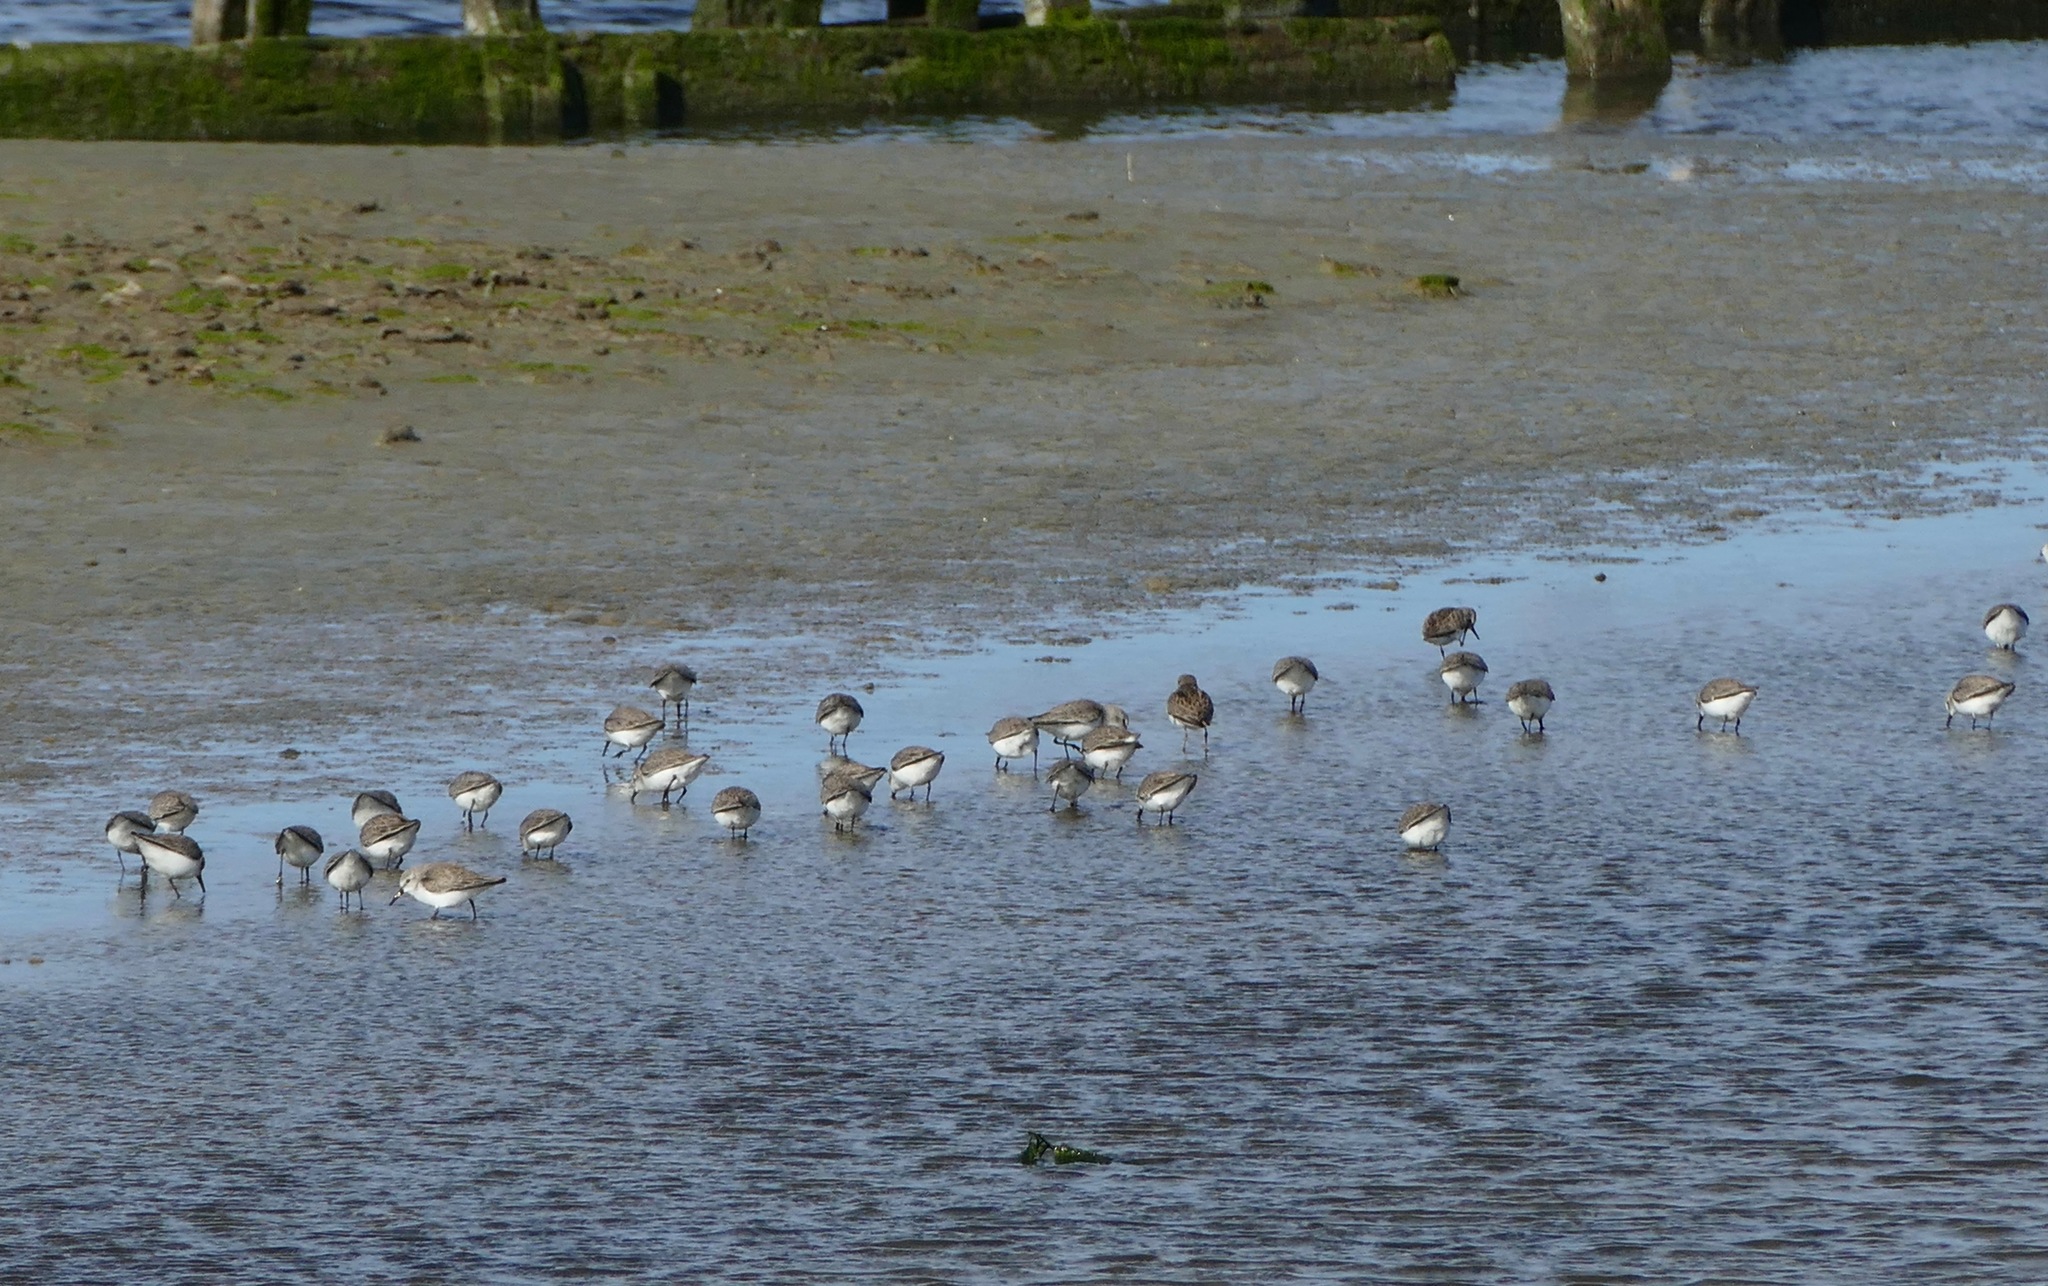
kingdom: Animalia
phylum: Chordata
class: Aves
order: Charadriiformes
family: Scolopacidae
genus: Calidris
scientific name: Calidris mauri
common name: Western sandpiper
